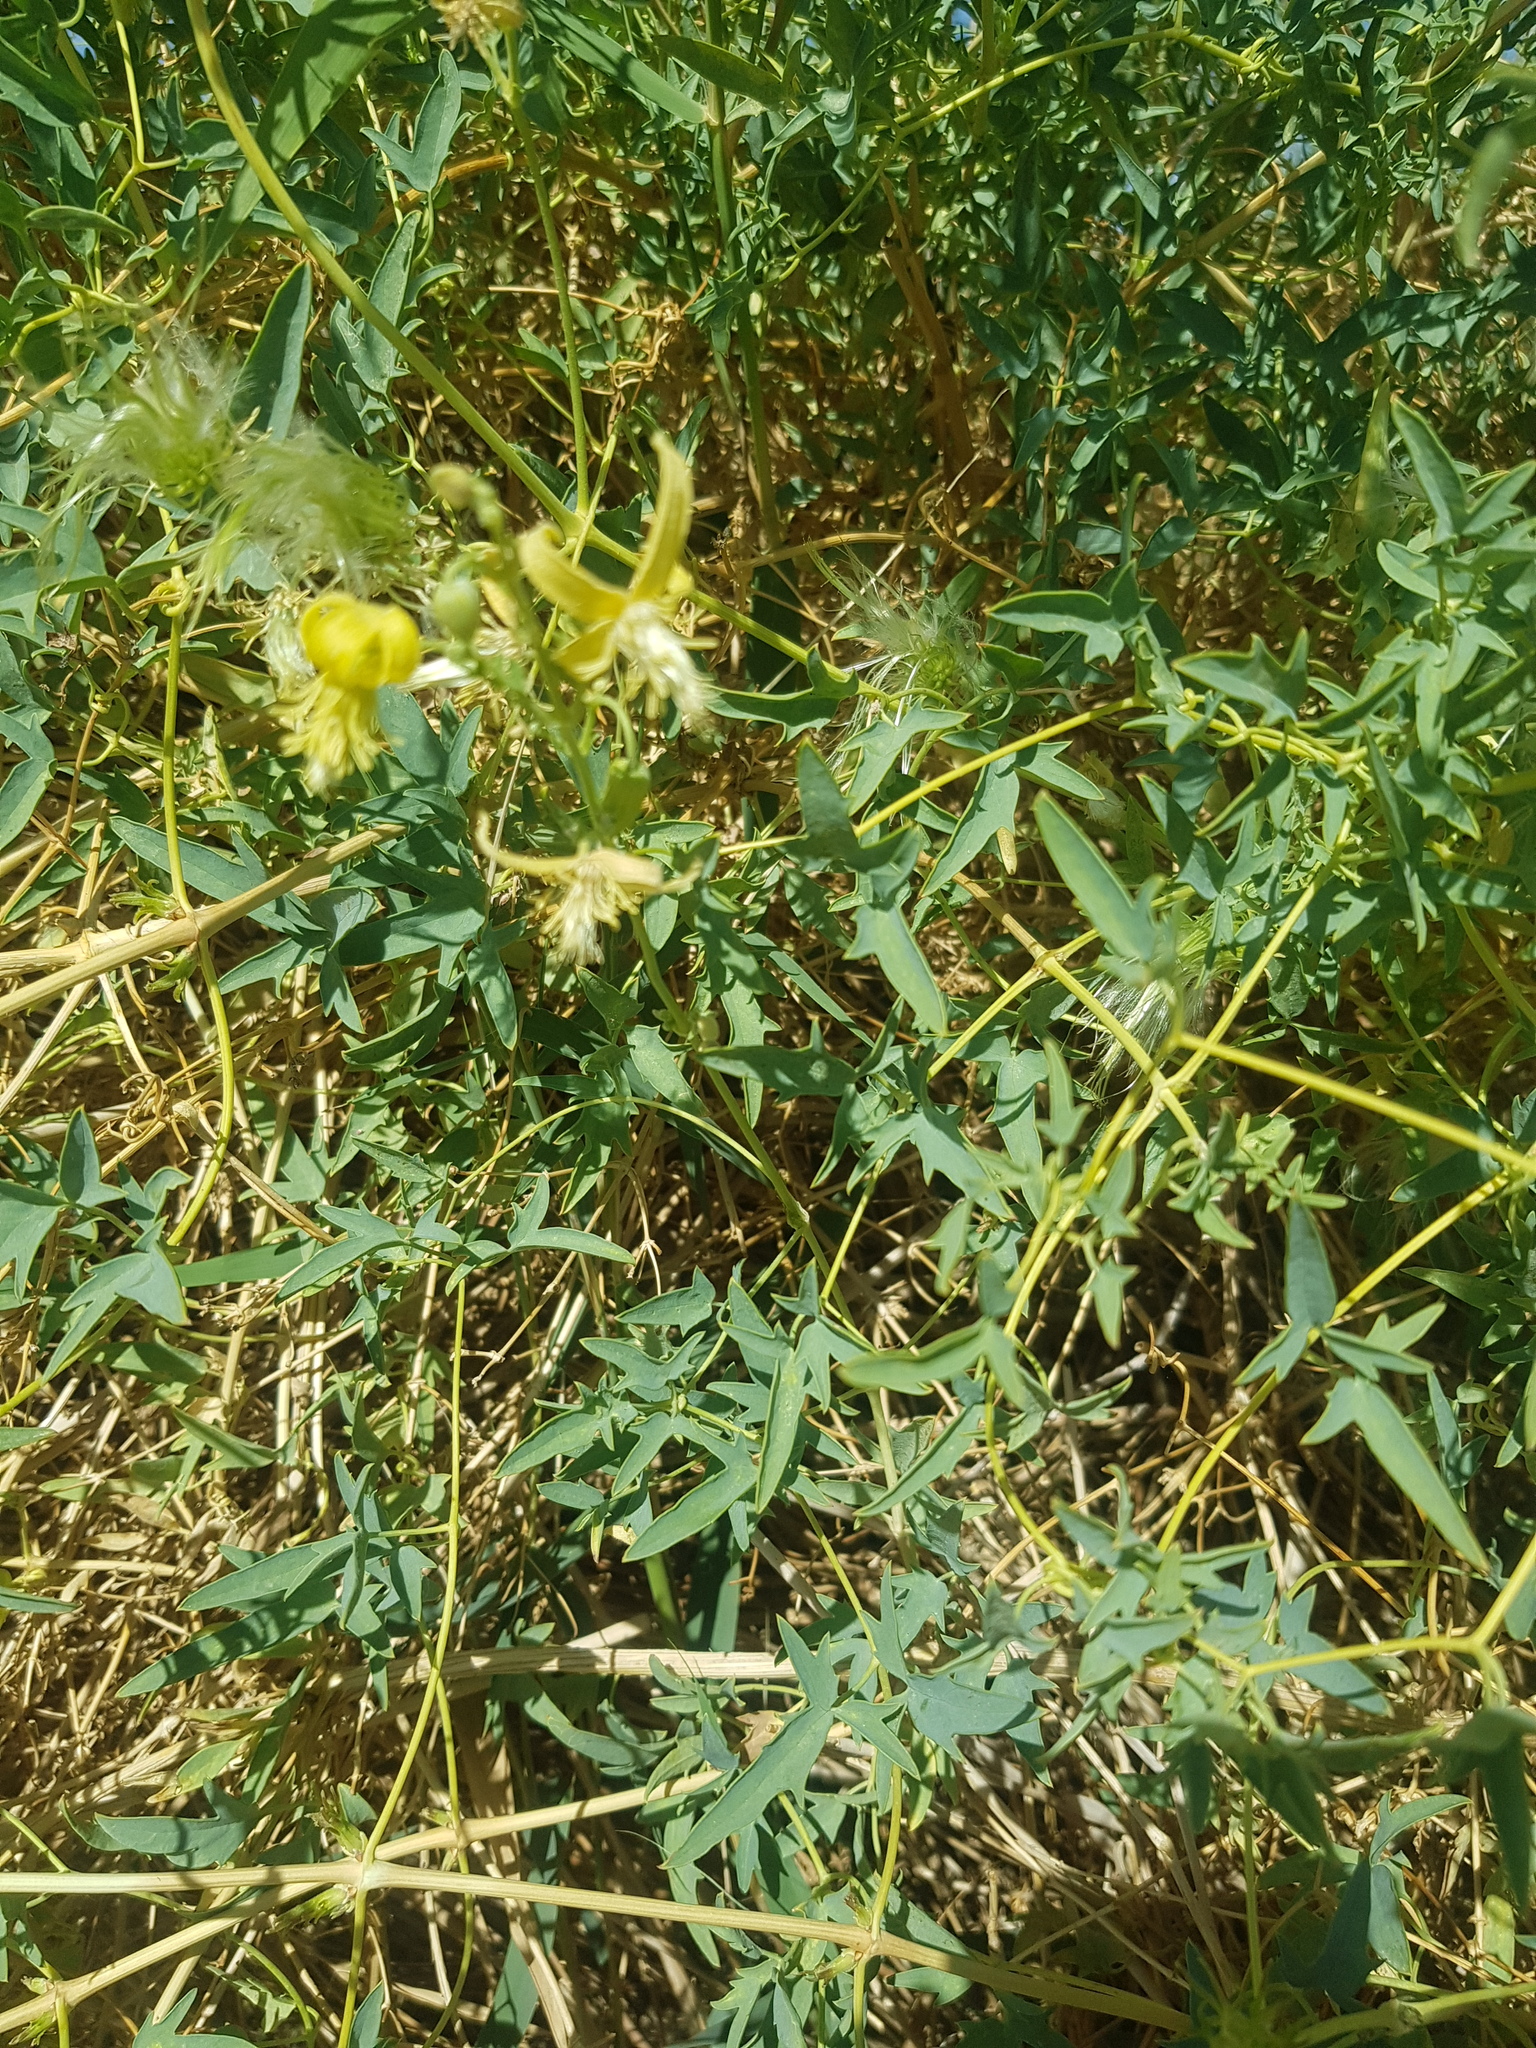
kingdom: Plantae
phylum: Tracheophyta
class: Magnoliopsida
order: Ranunculales
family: Ranunculaceae
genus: Clematis
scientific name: Clematis fruticosa
